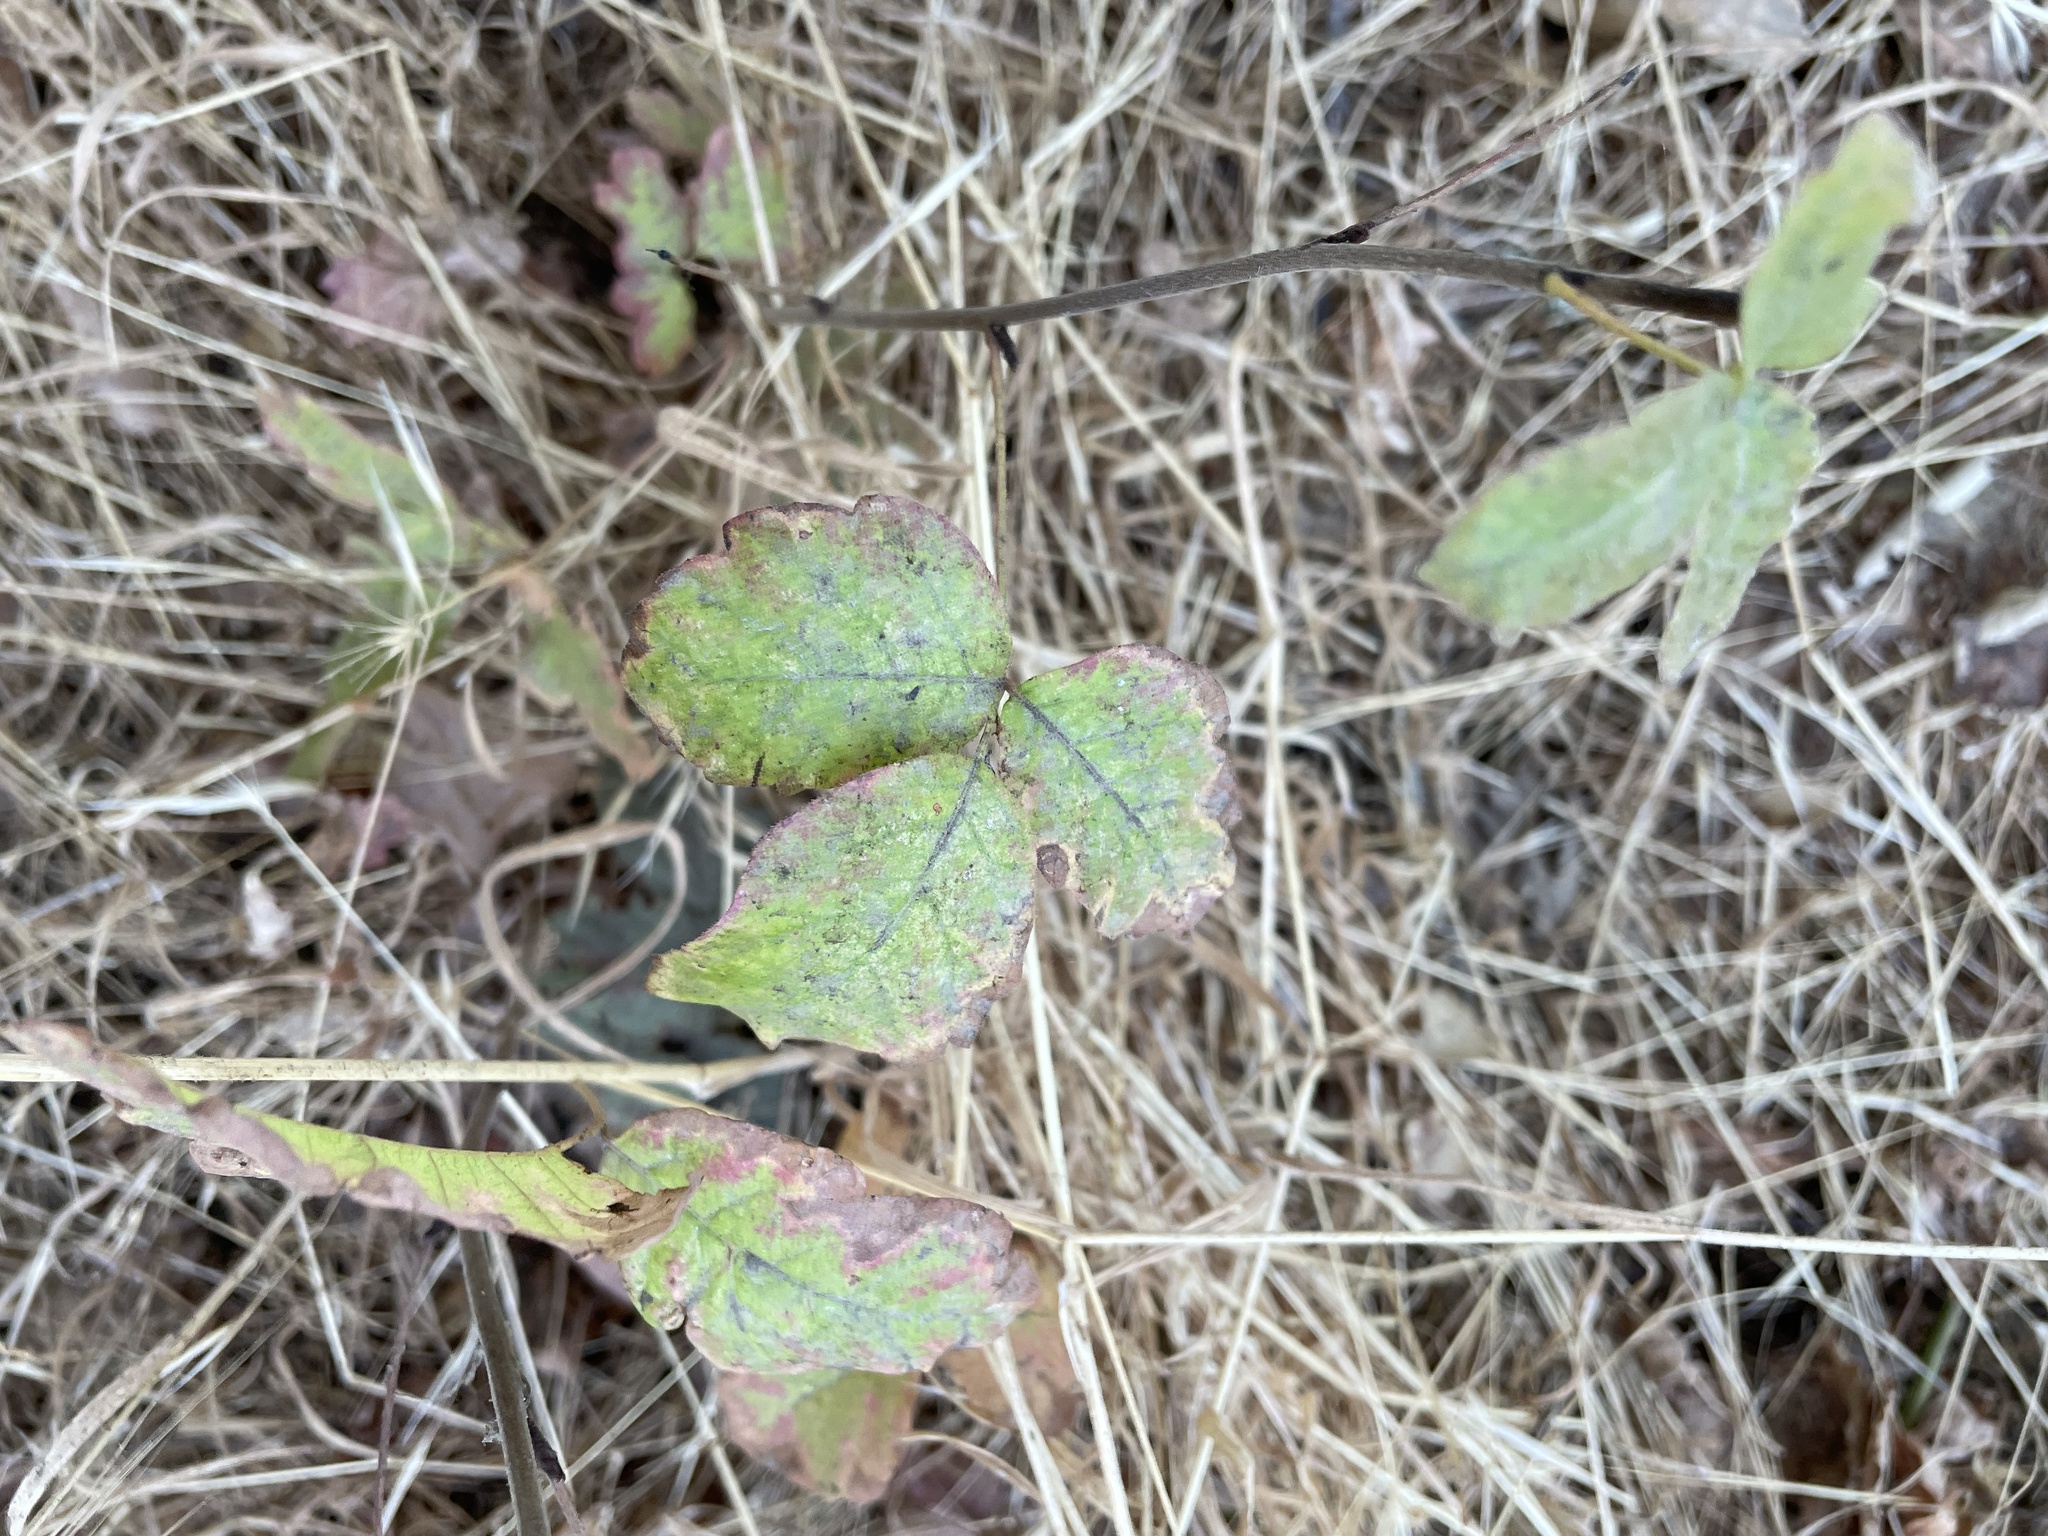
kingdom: Plantae
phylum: Tracheophyta
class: Magnoliopsida
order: Sapindales
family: Anacardiaceae
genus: Toxicodendron
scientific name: Toxicodendron diversilobum
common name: Pacific poison-oak
